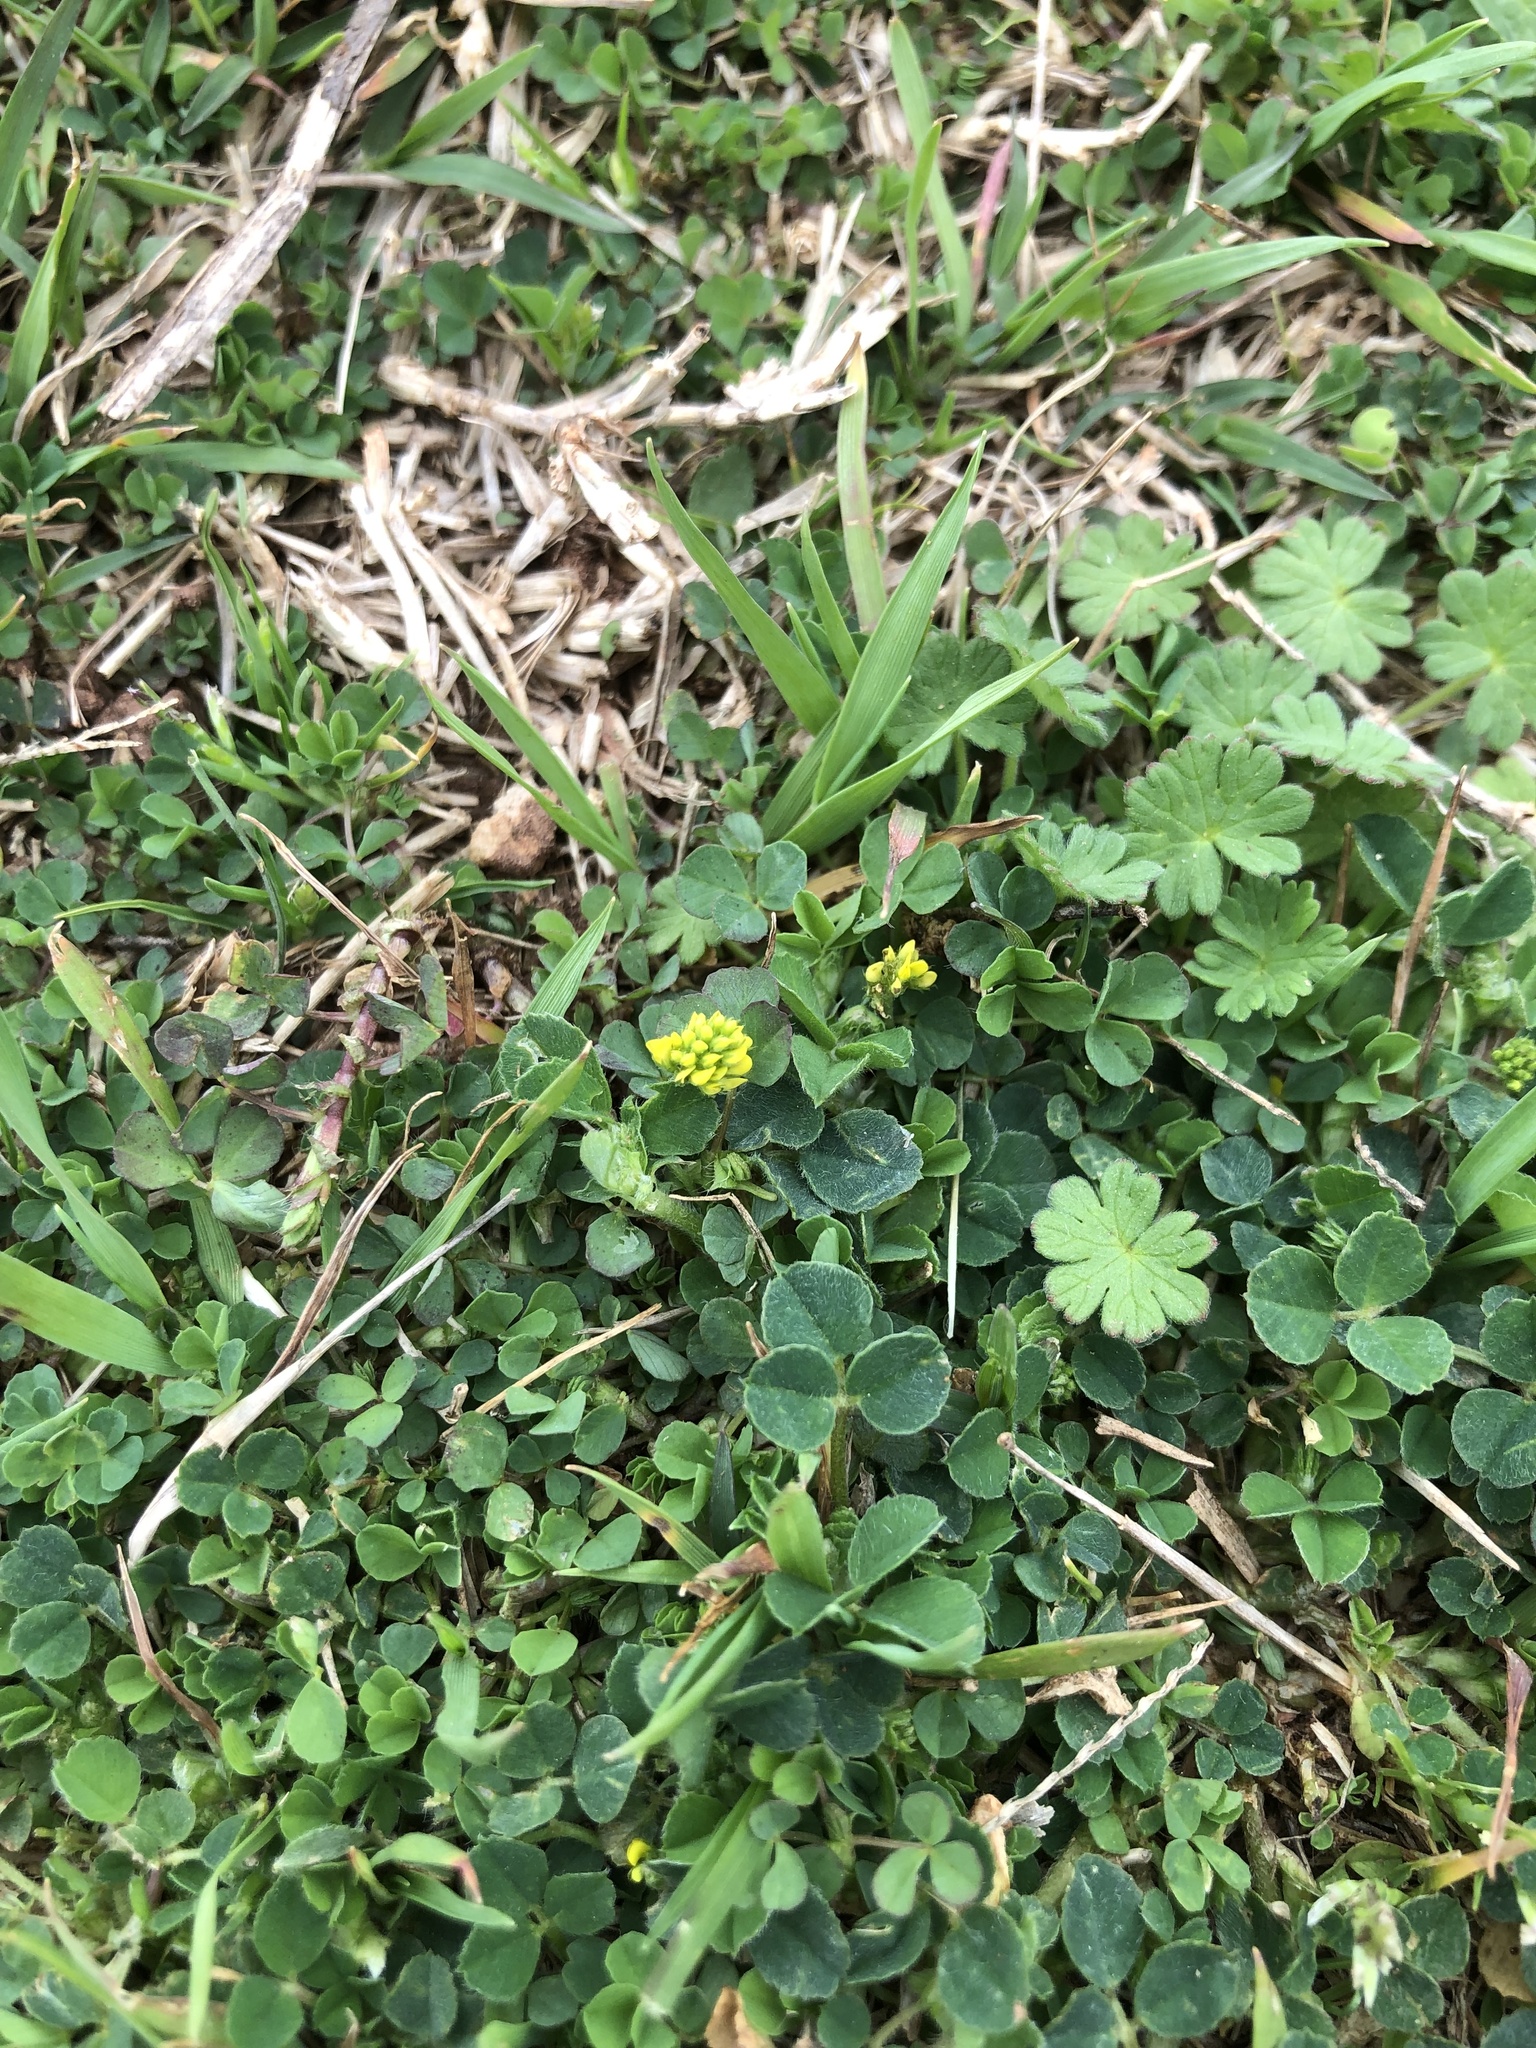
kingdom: Plantae
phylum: Tracheophyta
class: Magnoliopsida
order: Fabales
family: Fabaceae
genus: Medicago
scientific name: Medicago lupulina
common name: Black medick
